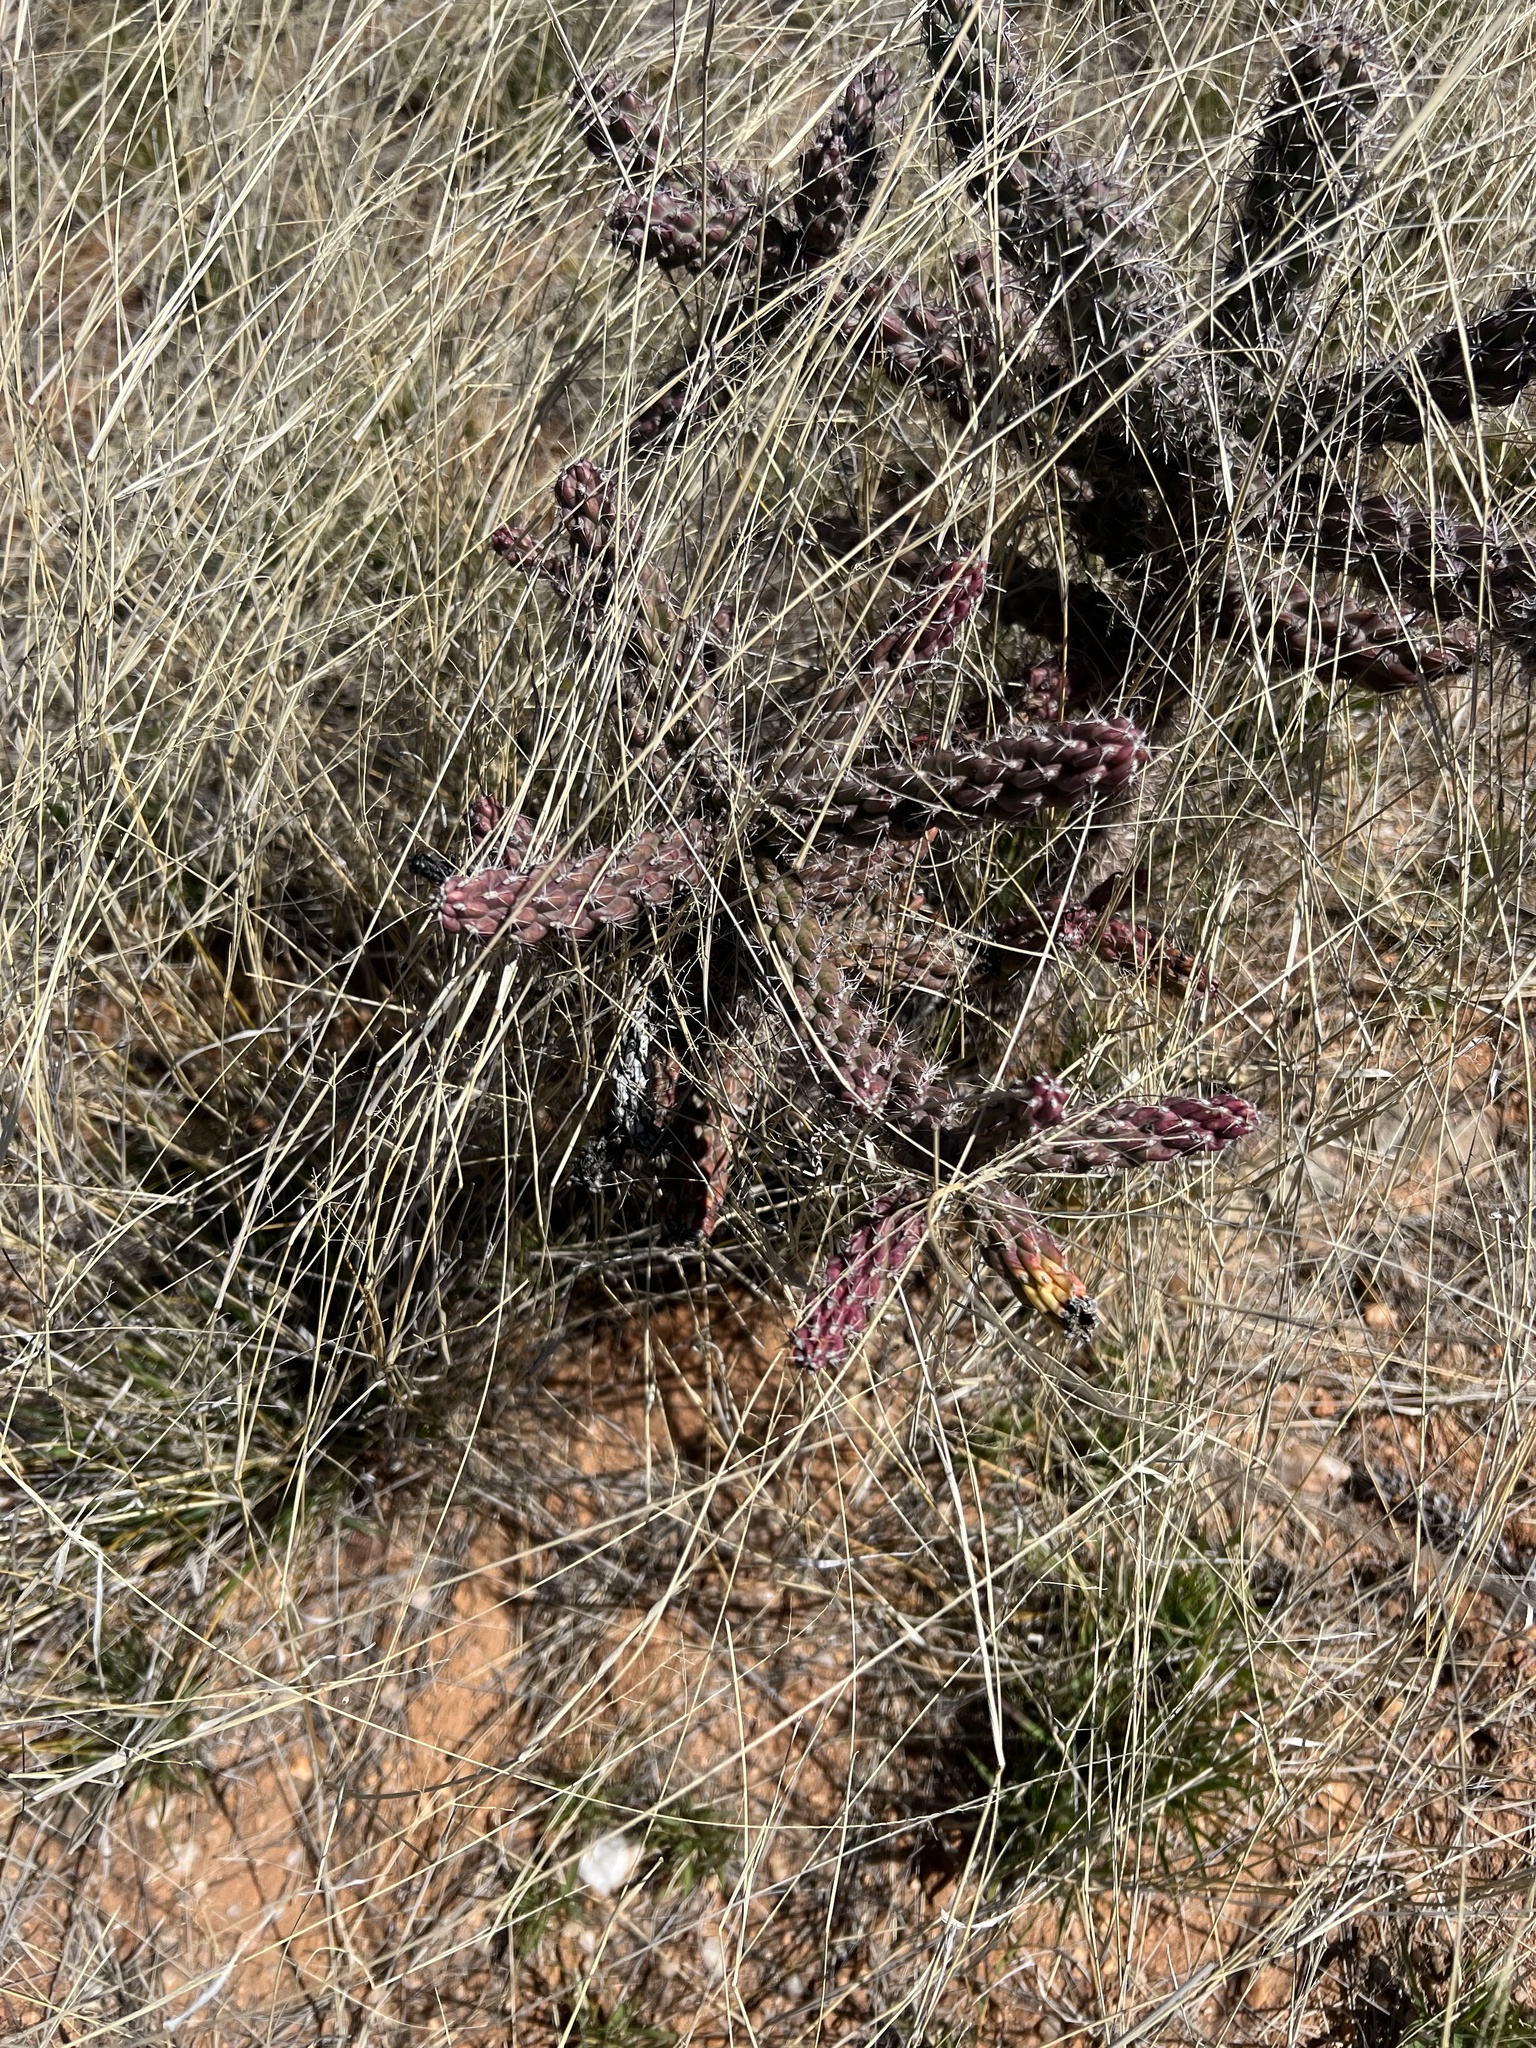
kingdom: Plantae
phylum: Tracheophyta
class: Magnoliopsida
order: Caryophyllales
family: Cactaceae
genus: Cylindropuntia
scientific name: Cylindropuntia imbricata
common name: Candelabrum cactus
